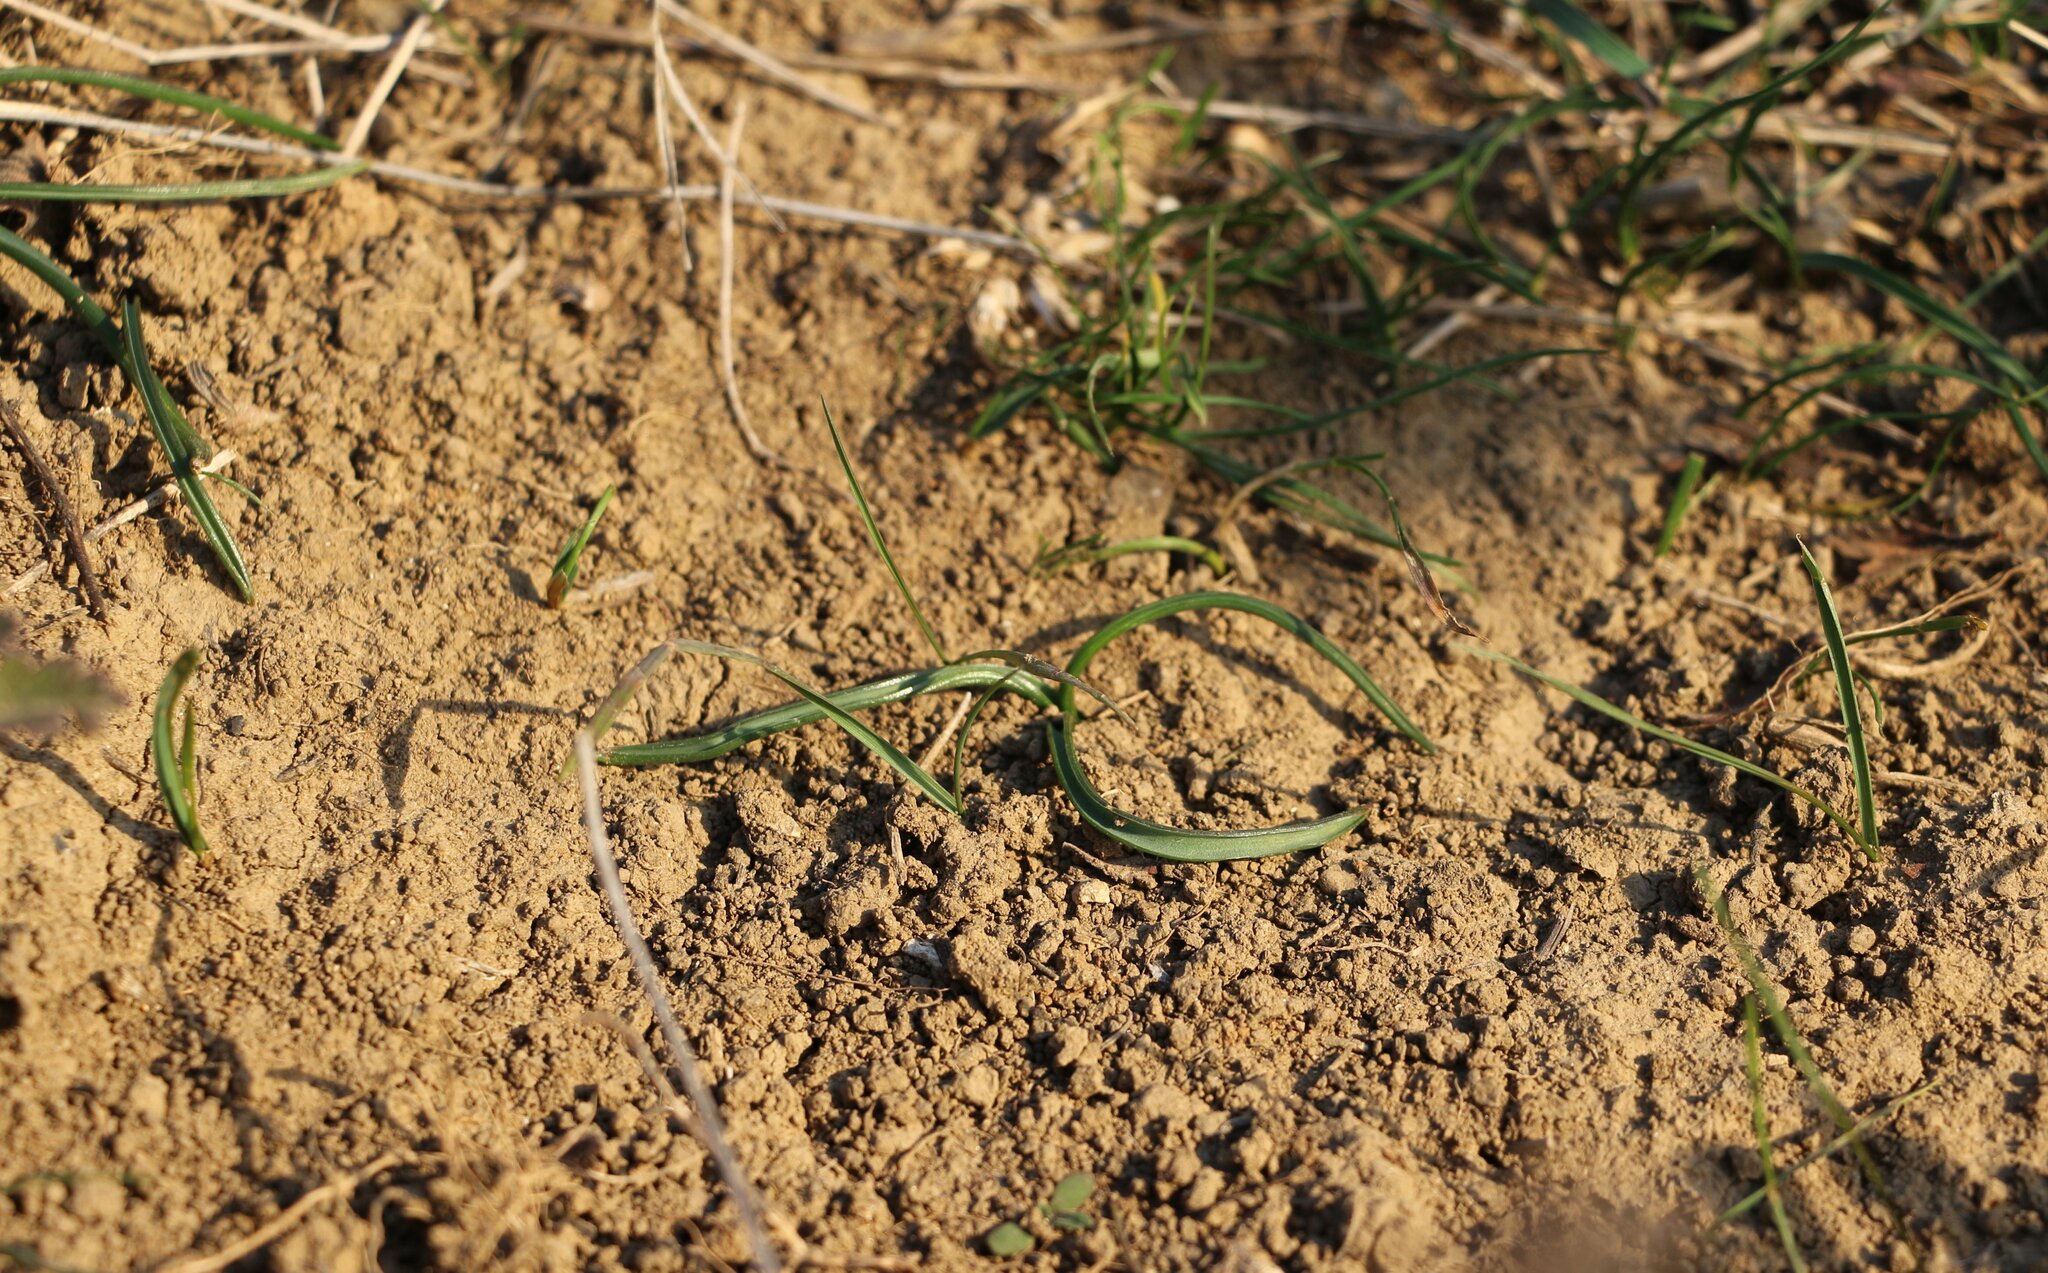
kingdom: Plantae
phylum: Tracheophyta
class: Liliopsida
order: Asparagales
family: Asparagaceae
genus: Muscari
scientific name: Muscari neglectum
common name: Grape-hyacinth
